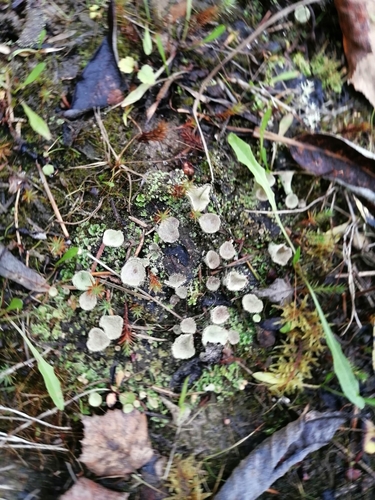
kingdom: Fungi
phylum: Ascomycota
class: Lecanoromycetes
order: Lecanorales
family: Cladoniaceae
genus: Cladonia
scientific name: Cladonia pyxidata
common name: Pebbled pixie cup
